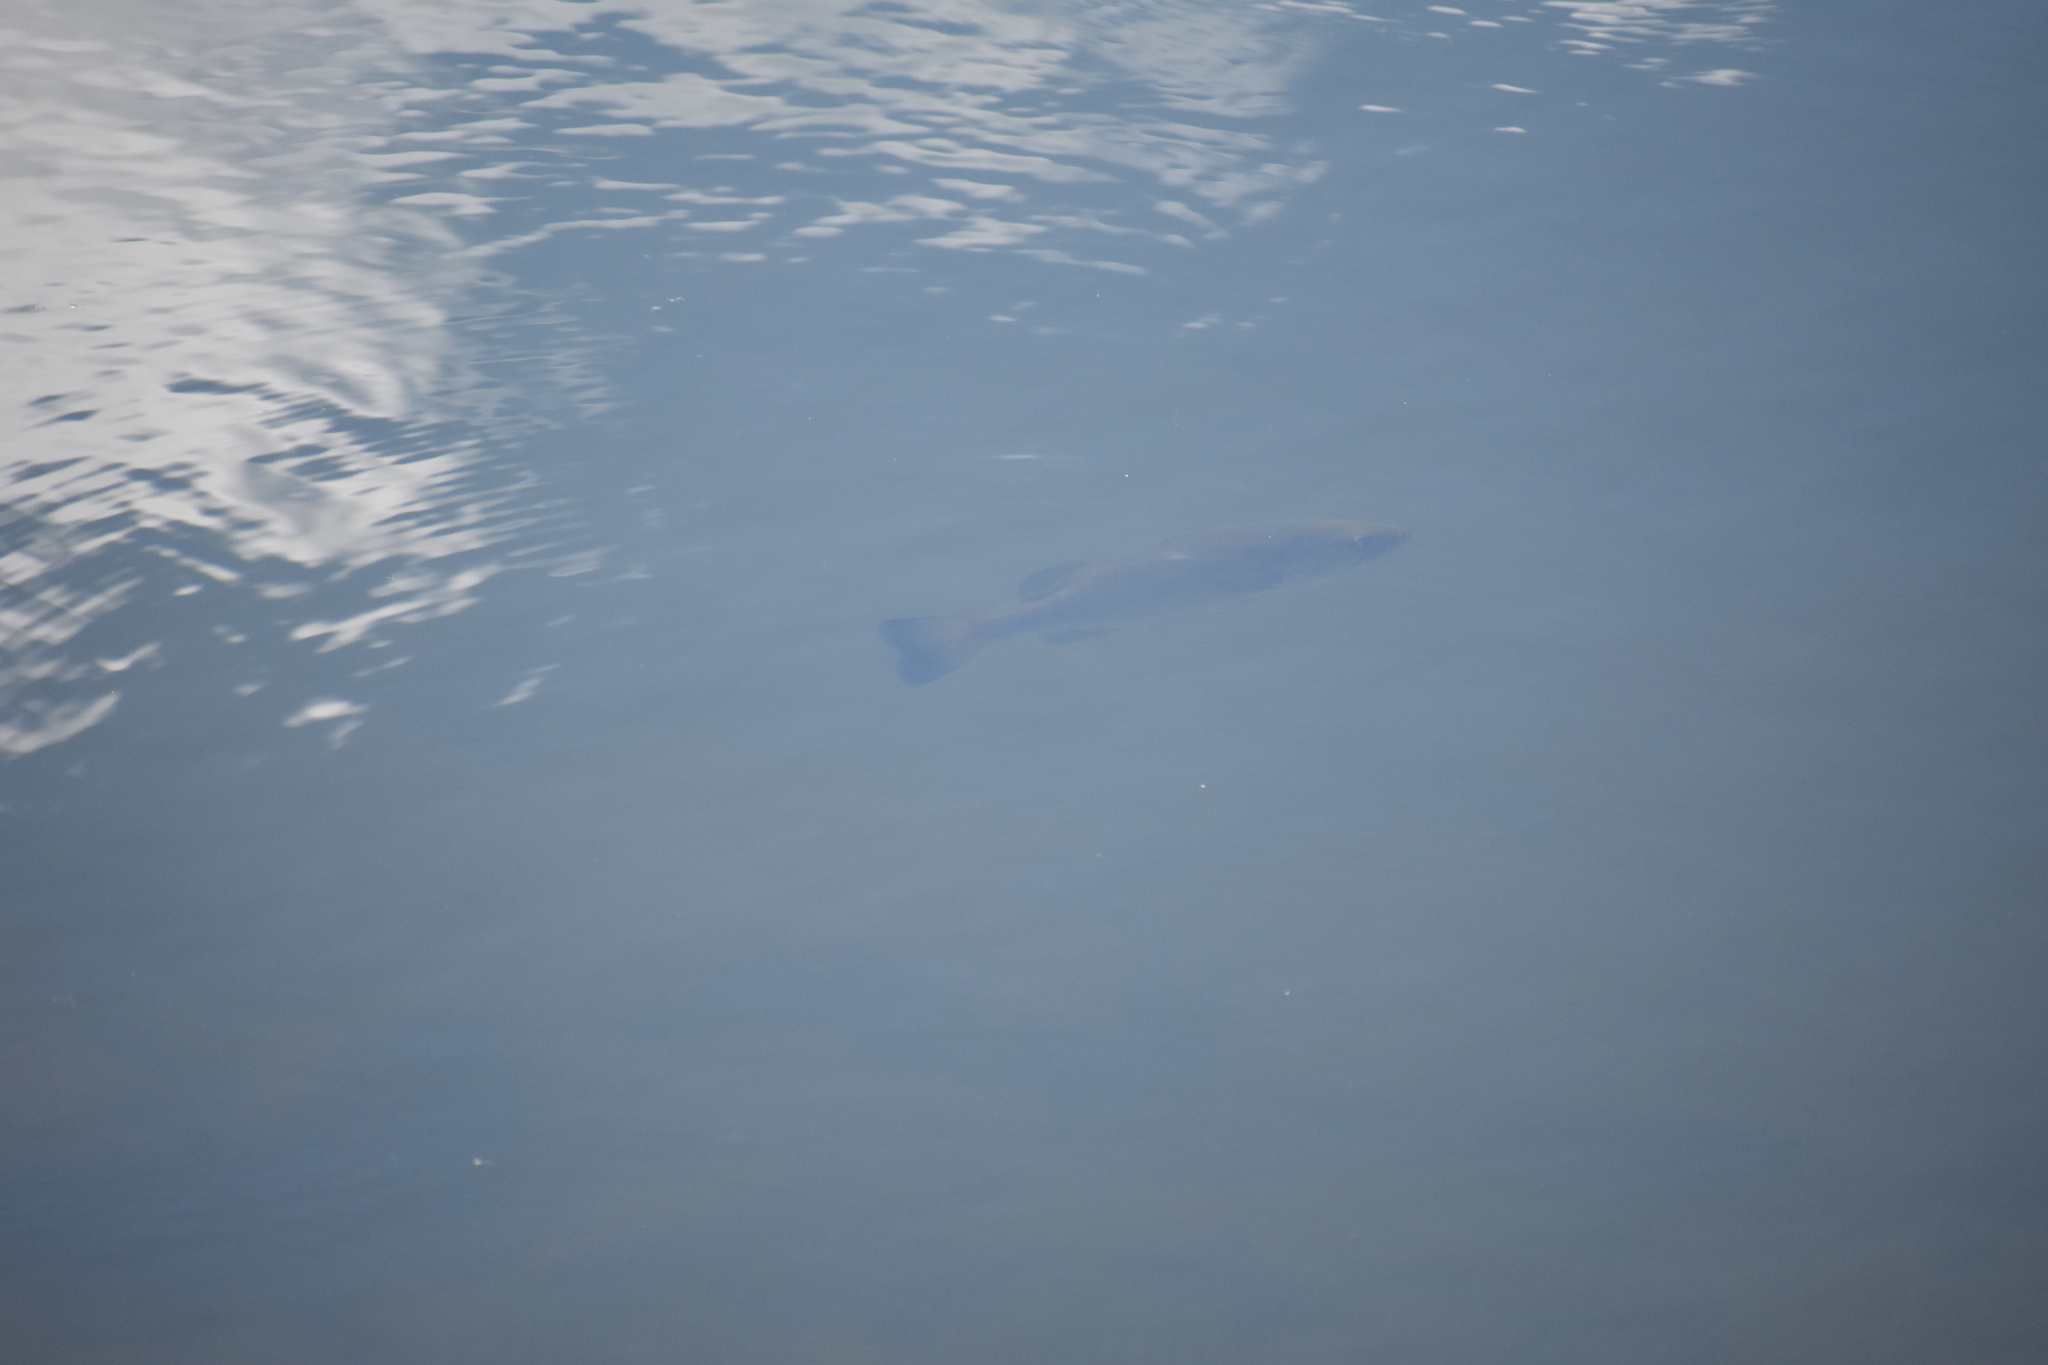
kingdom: Animalia
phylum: Chordata
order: Perciformes
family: Centrarchidae
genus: Micropterus
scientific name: Micropterus
